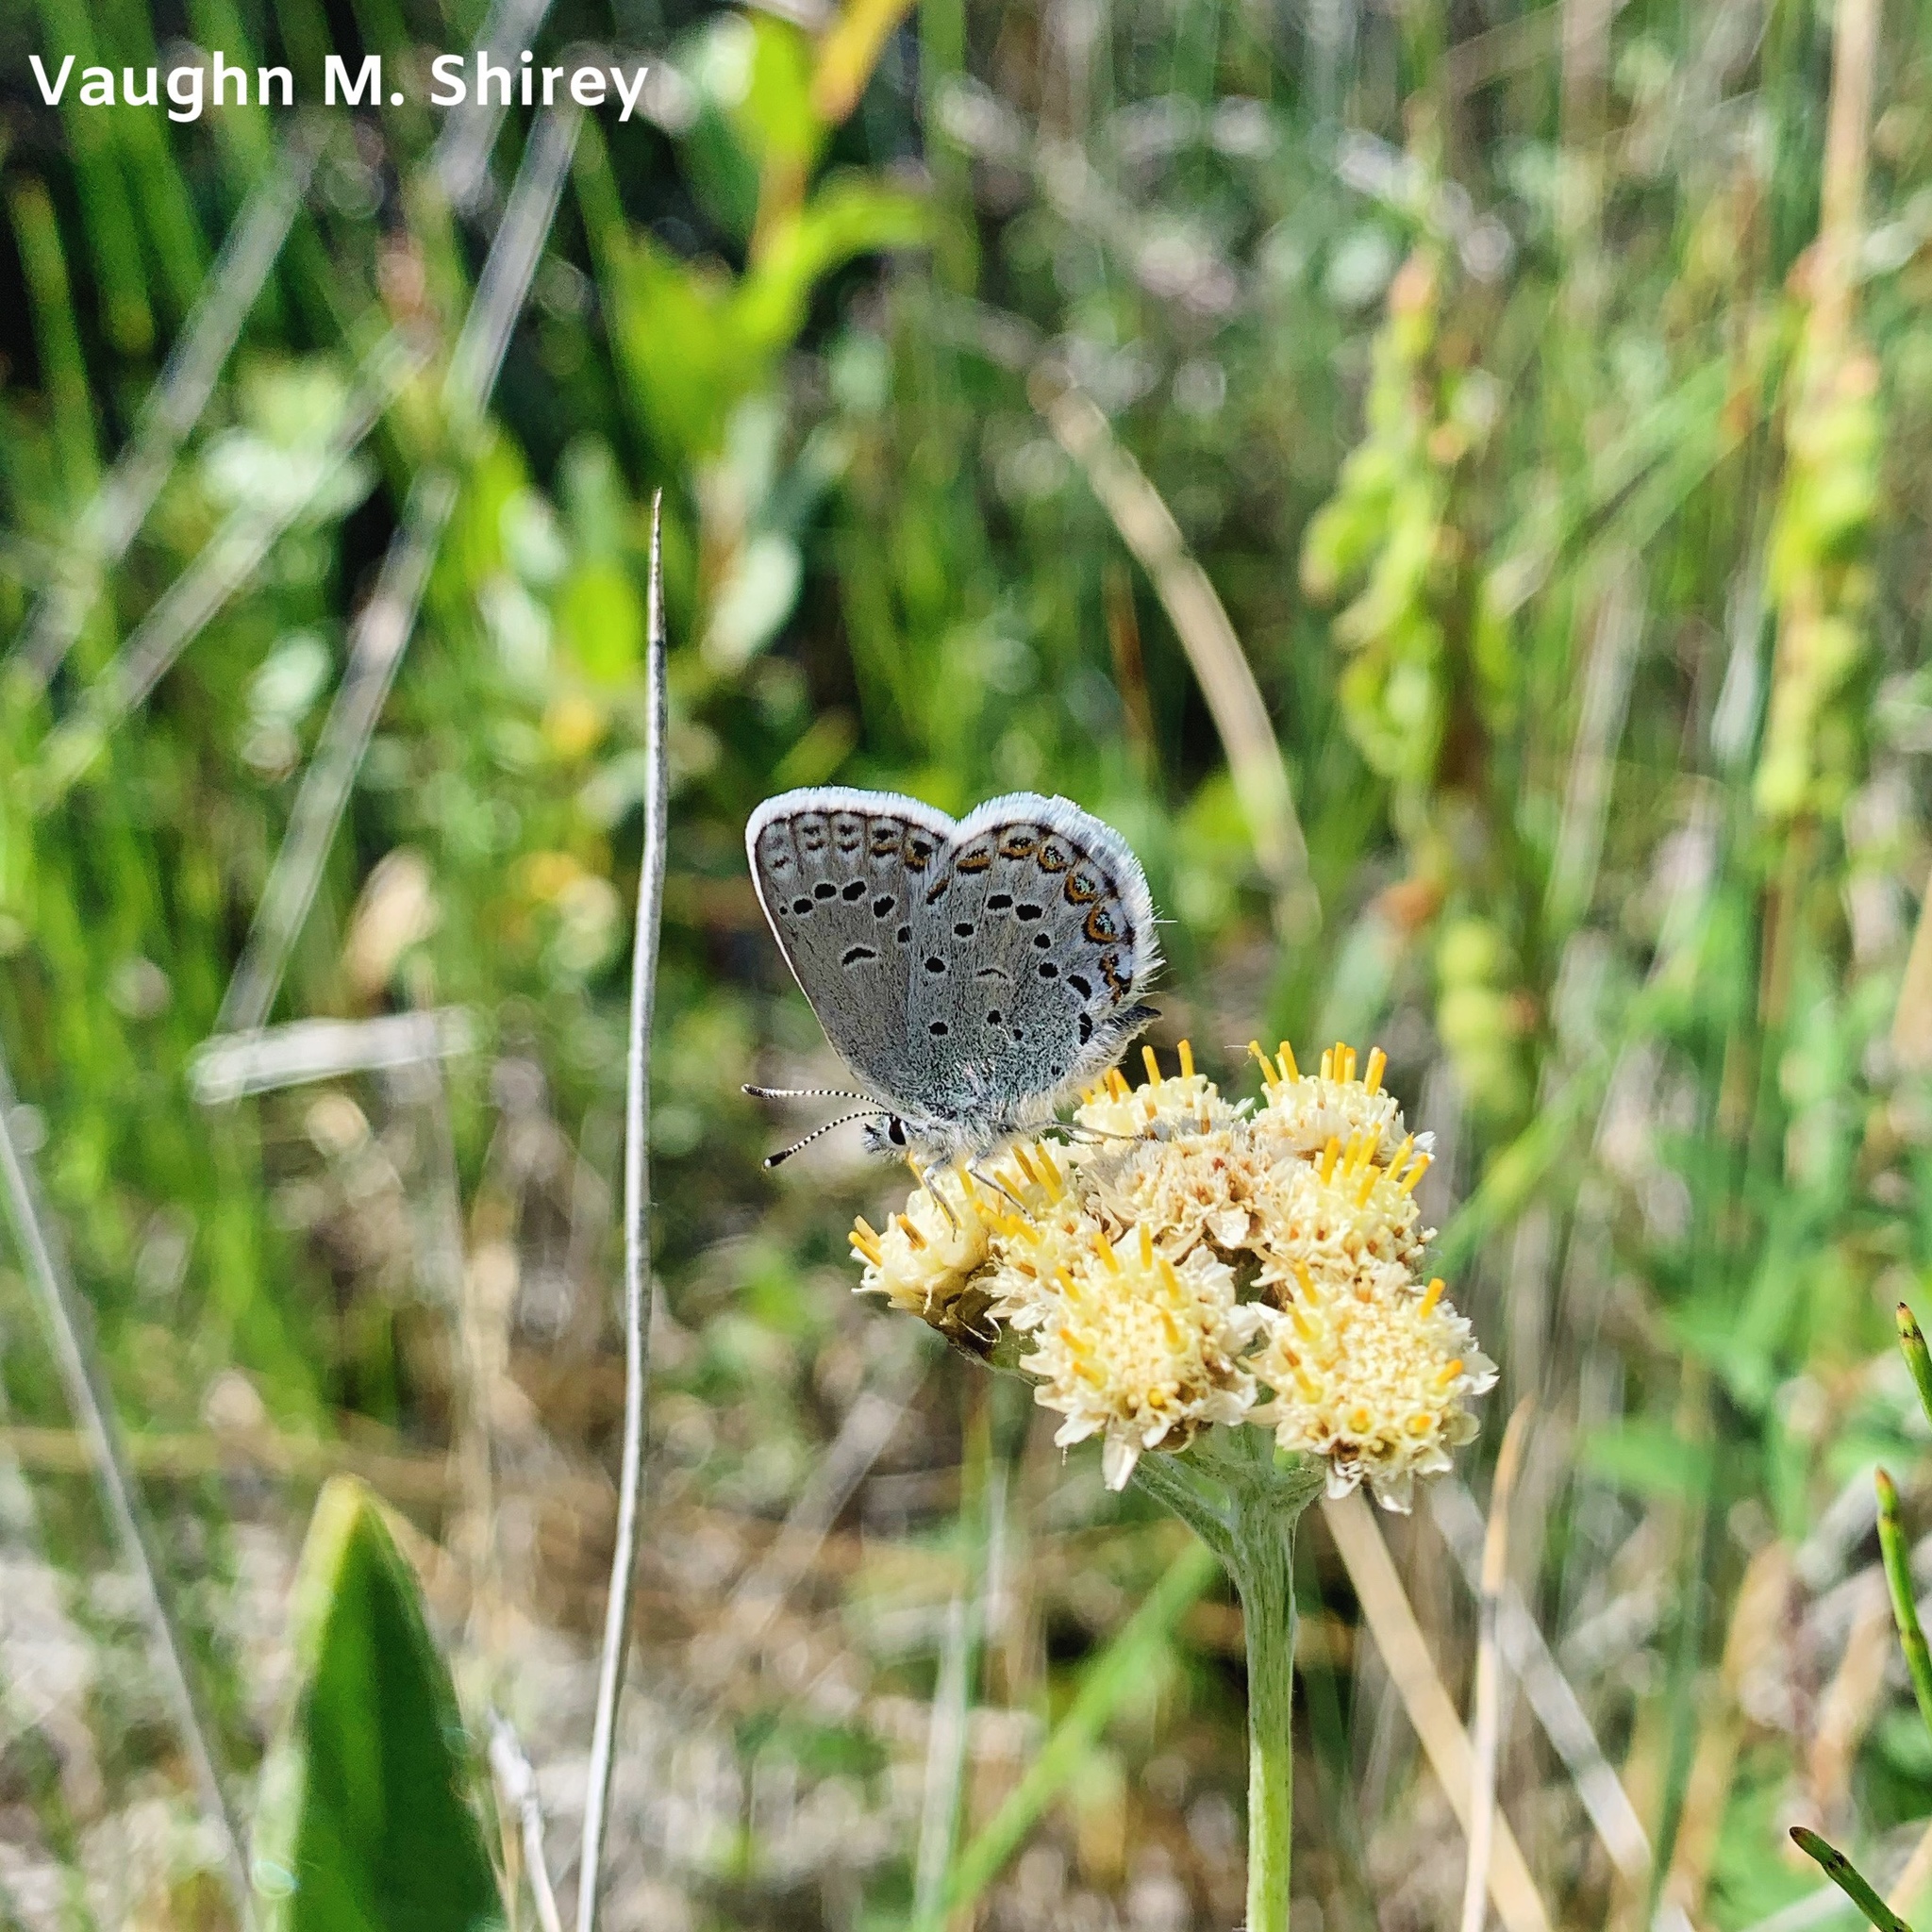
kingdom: Animalia
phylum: Arthropoda
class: Insecta
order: Lepidoptera
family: Lycaenidae
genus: Lycaeides
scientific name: Lycaeides idas
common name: Northern blue
